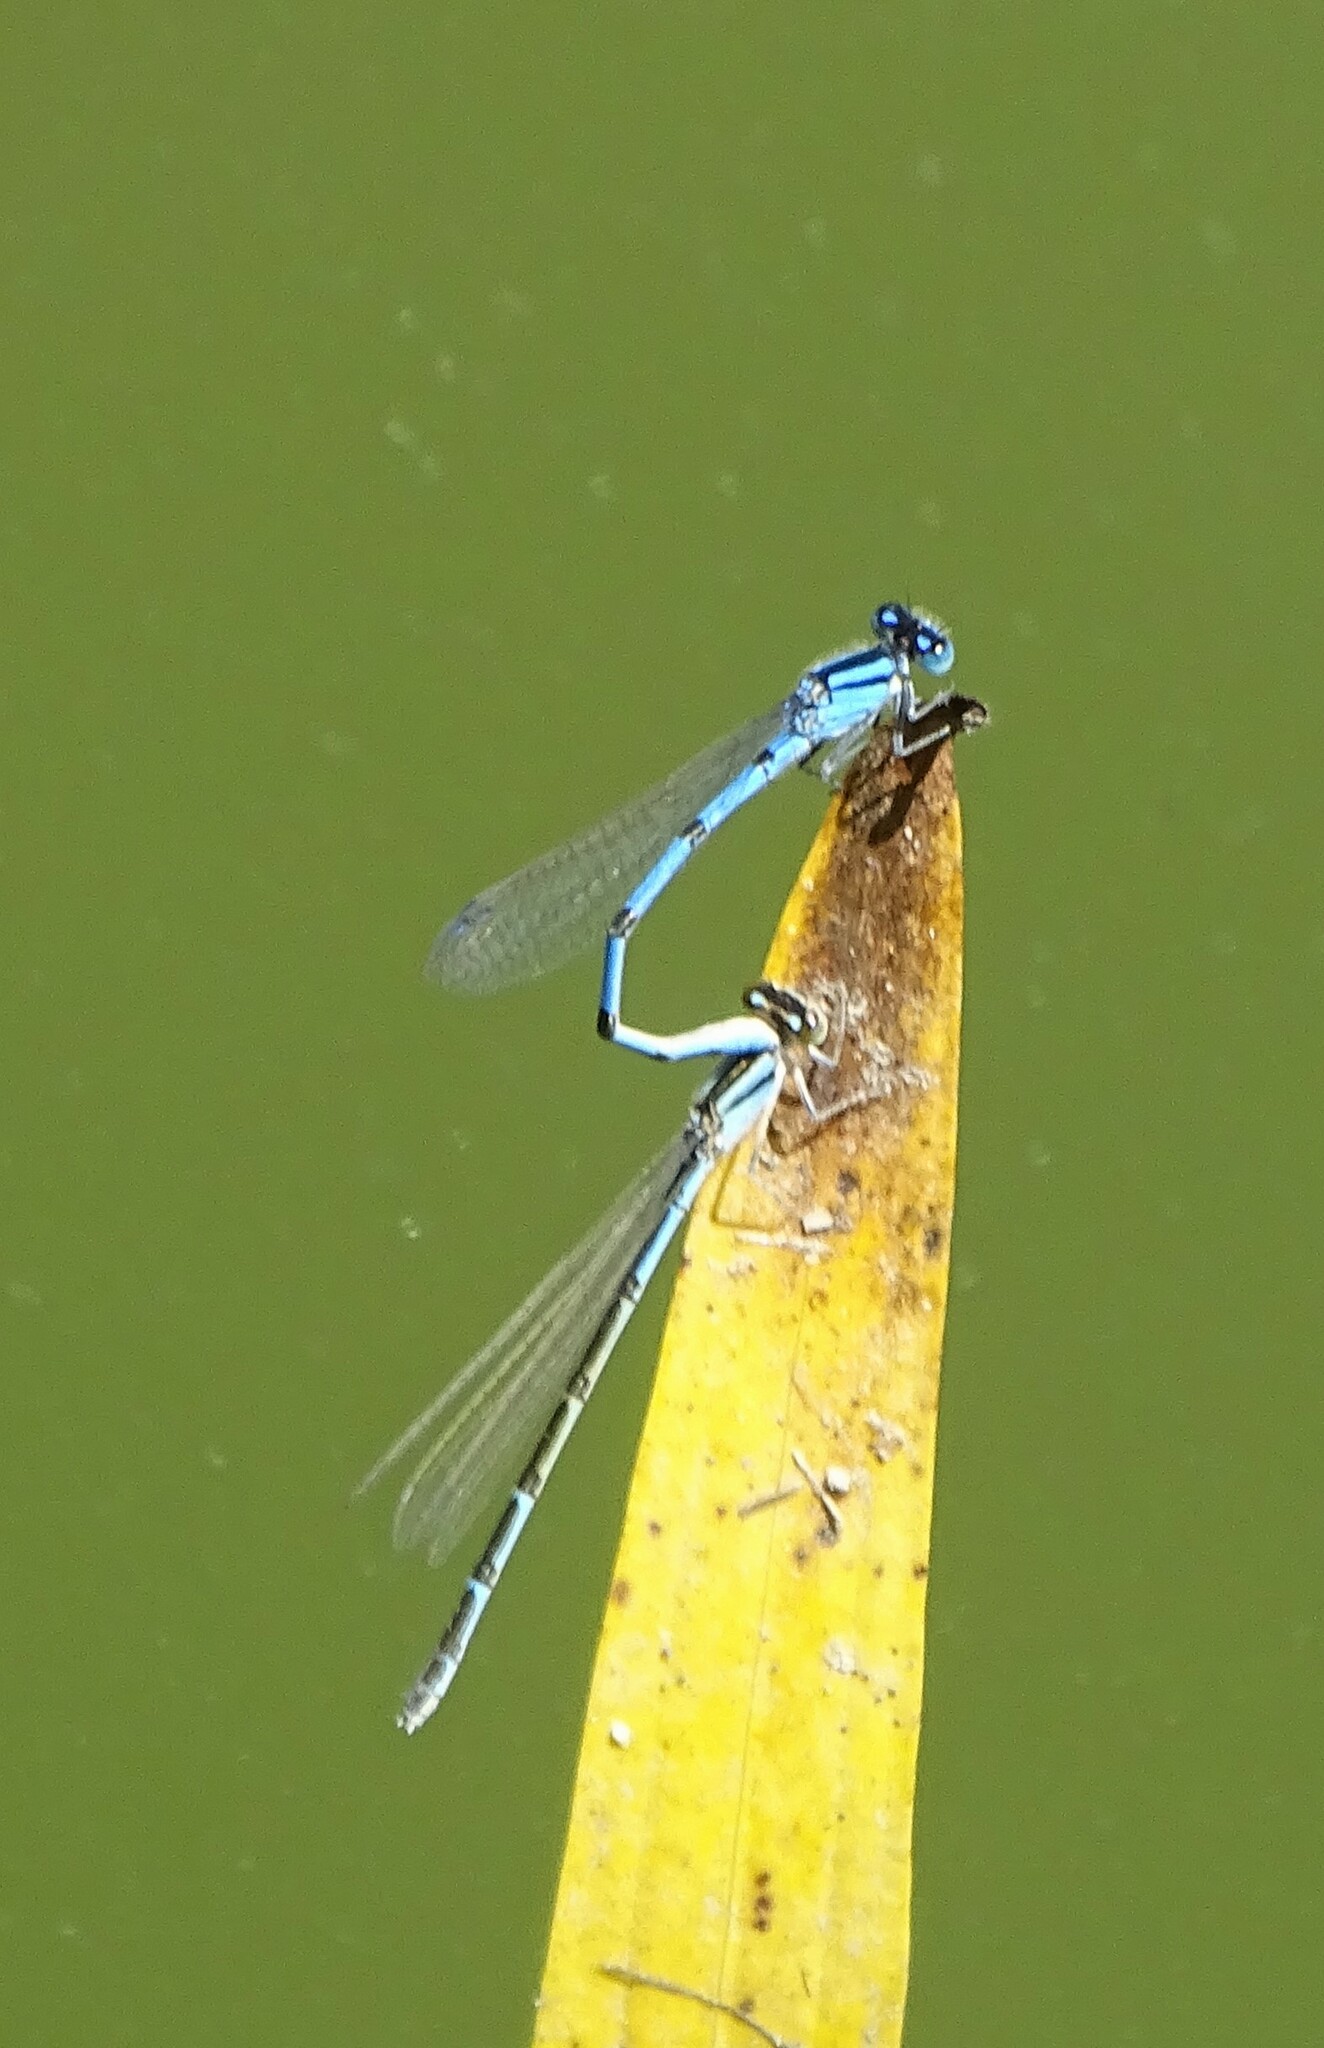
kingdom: Animalia
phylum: Arthropoda
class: Insecta
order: Odonata
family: Coenagrionidae
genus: Enallagma
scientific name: Enallagma civile
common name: Damselfly
